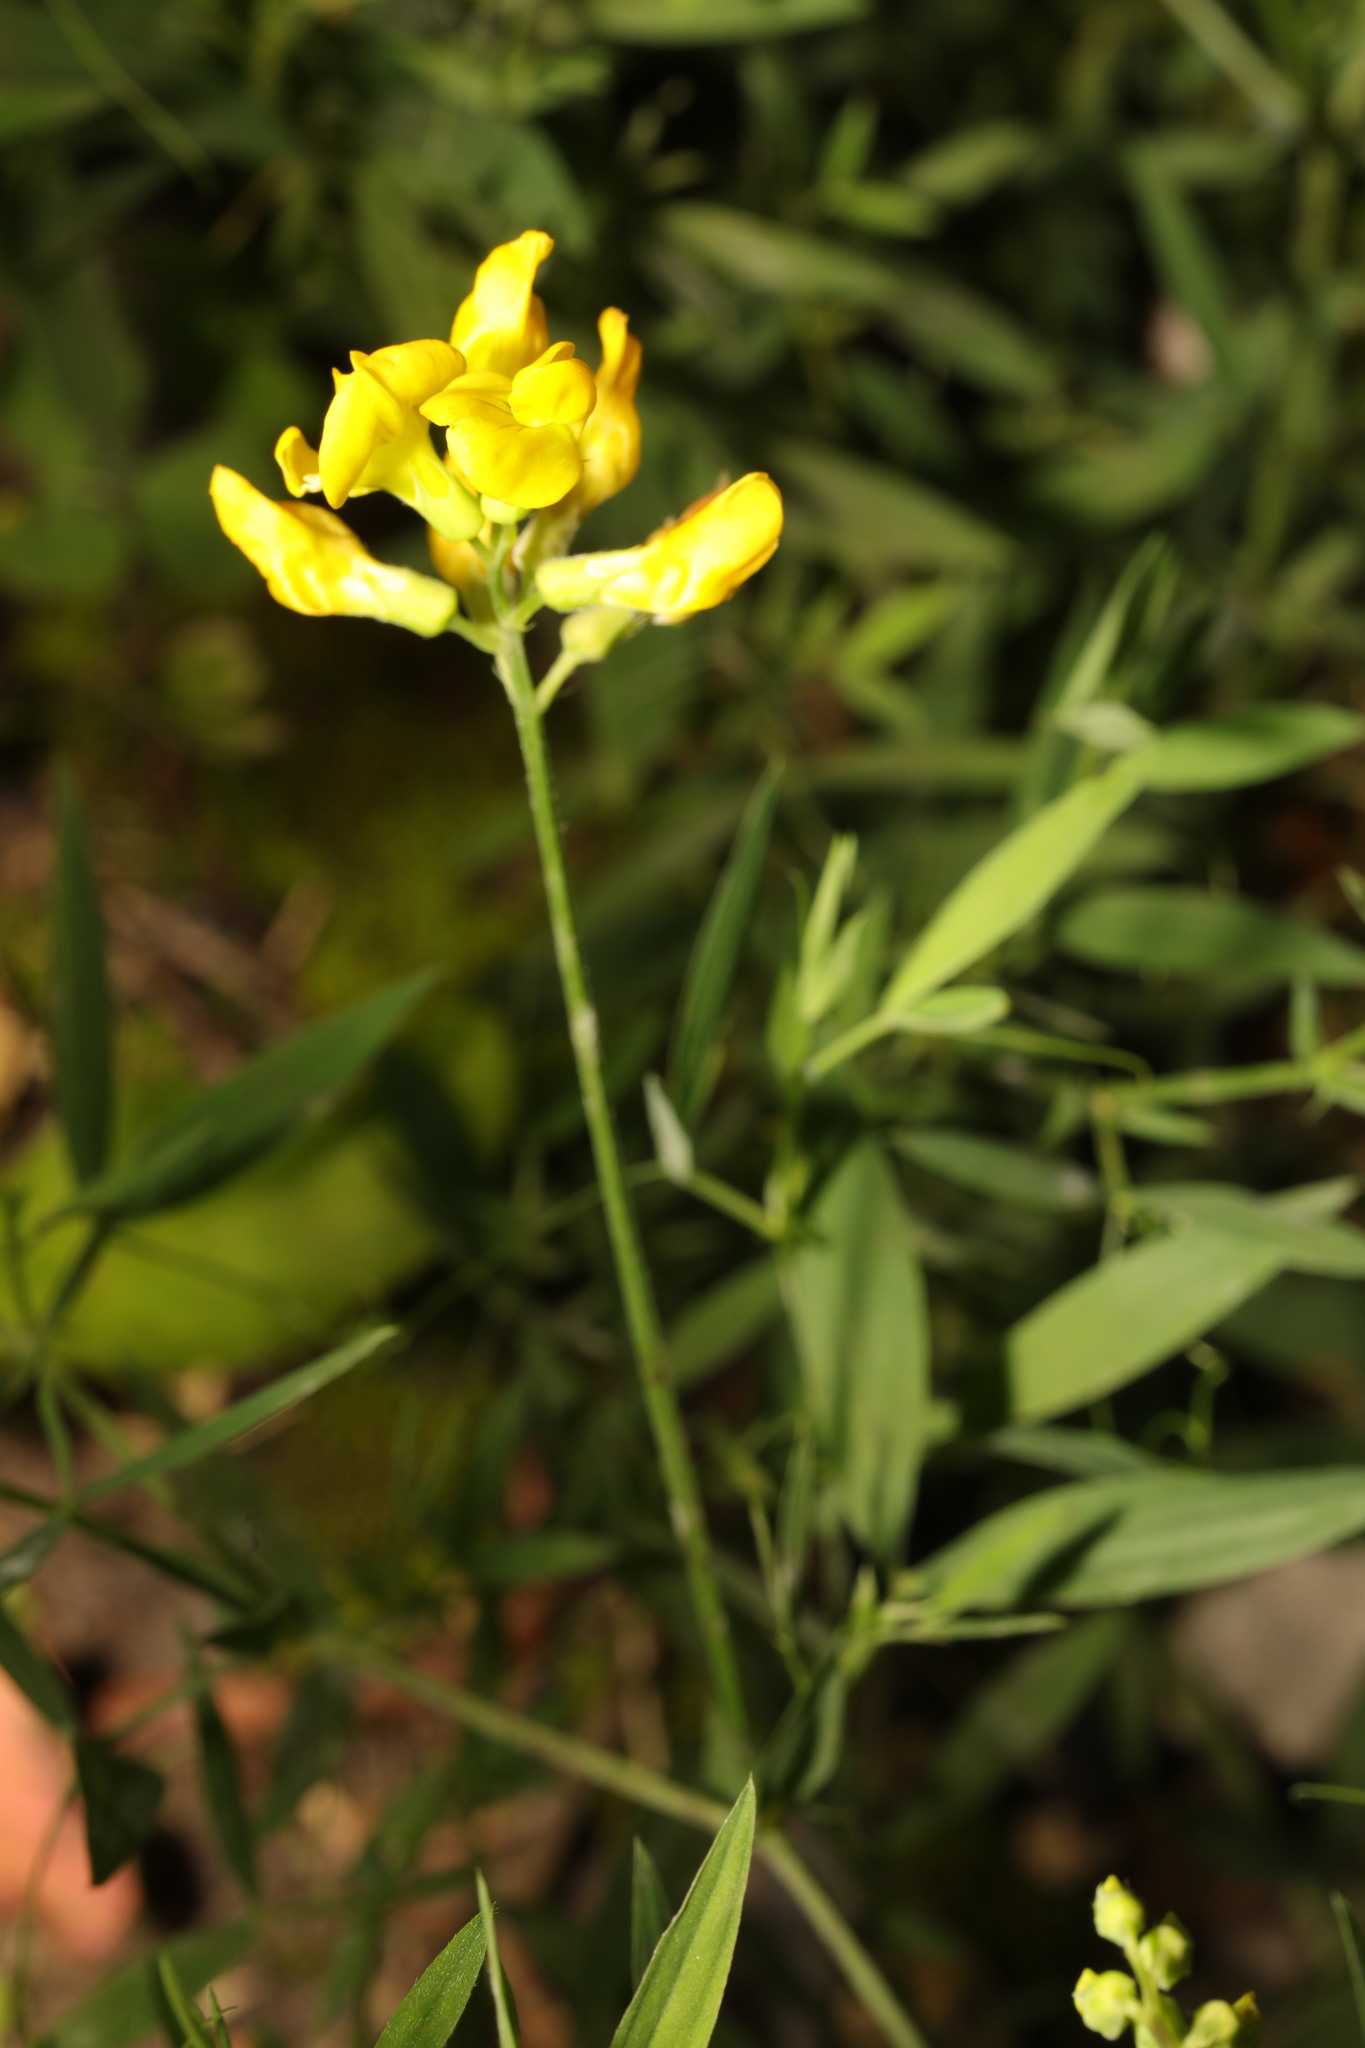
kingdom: Plantae
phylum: Tracheophyta
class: Magnoliopsida
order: Fabales
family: Fabaceae
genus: Lathyrus
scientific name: Lathyrus pratensis
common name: Meadow vetchling
